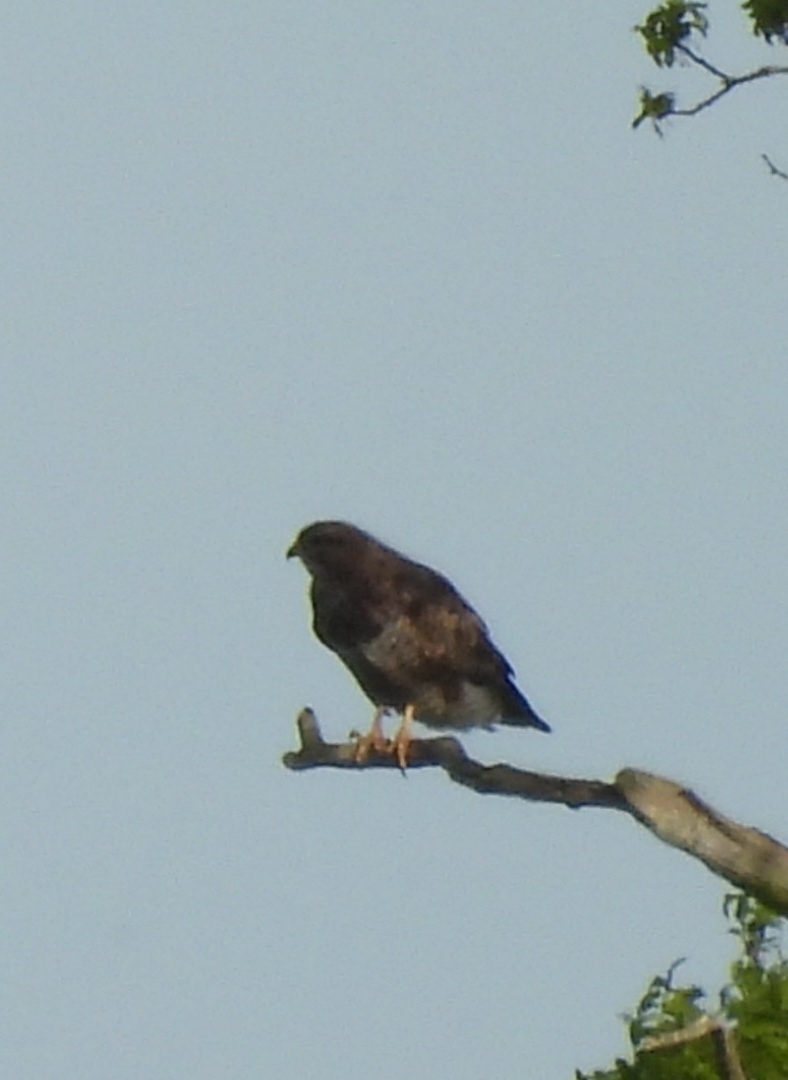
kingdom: Animalia
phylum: Chordata
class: Aves
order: Accipitriformes
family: Accipitridae
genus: Buteo
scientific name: Buteo buteo
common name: Common buzzard
